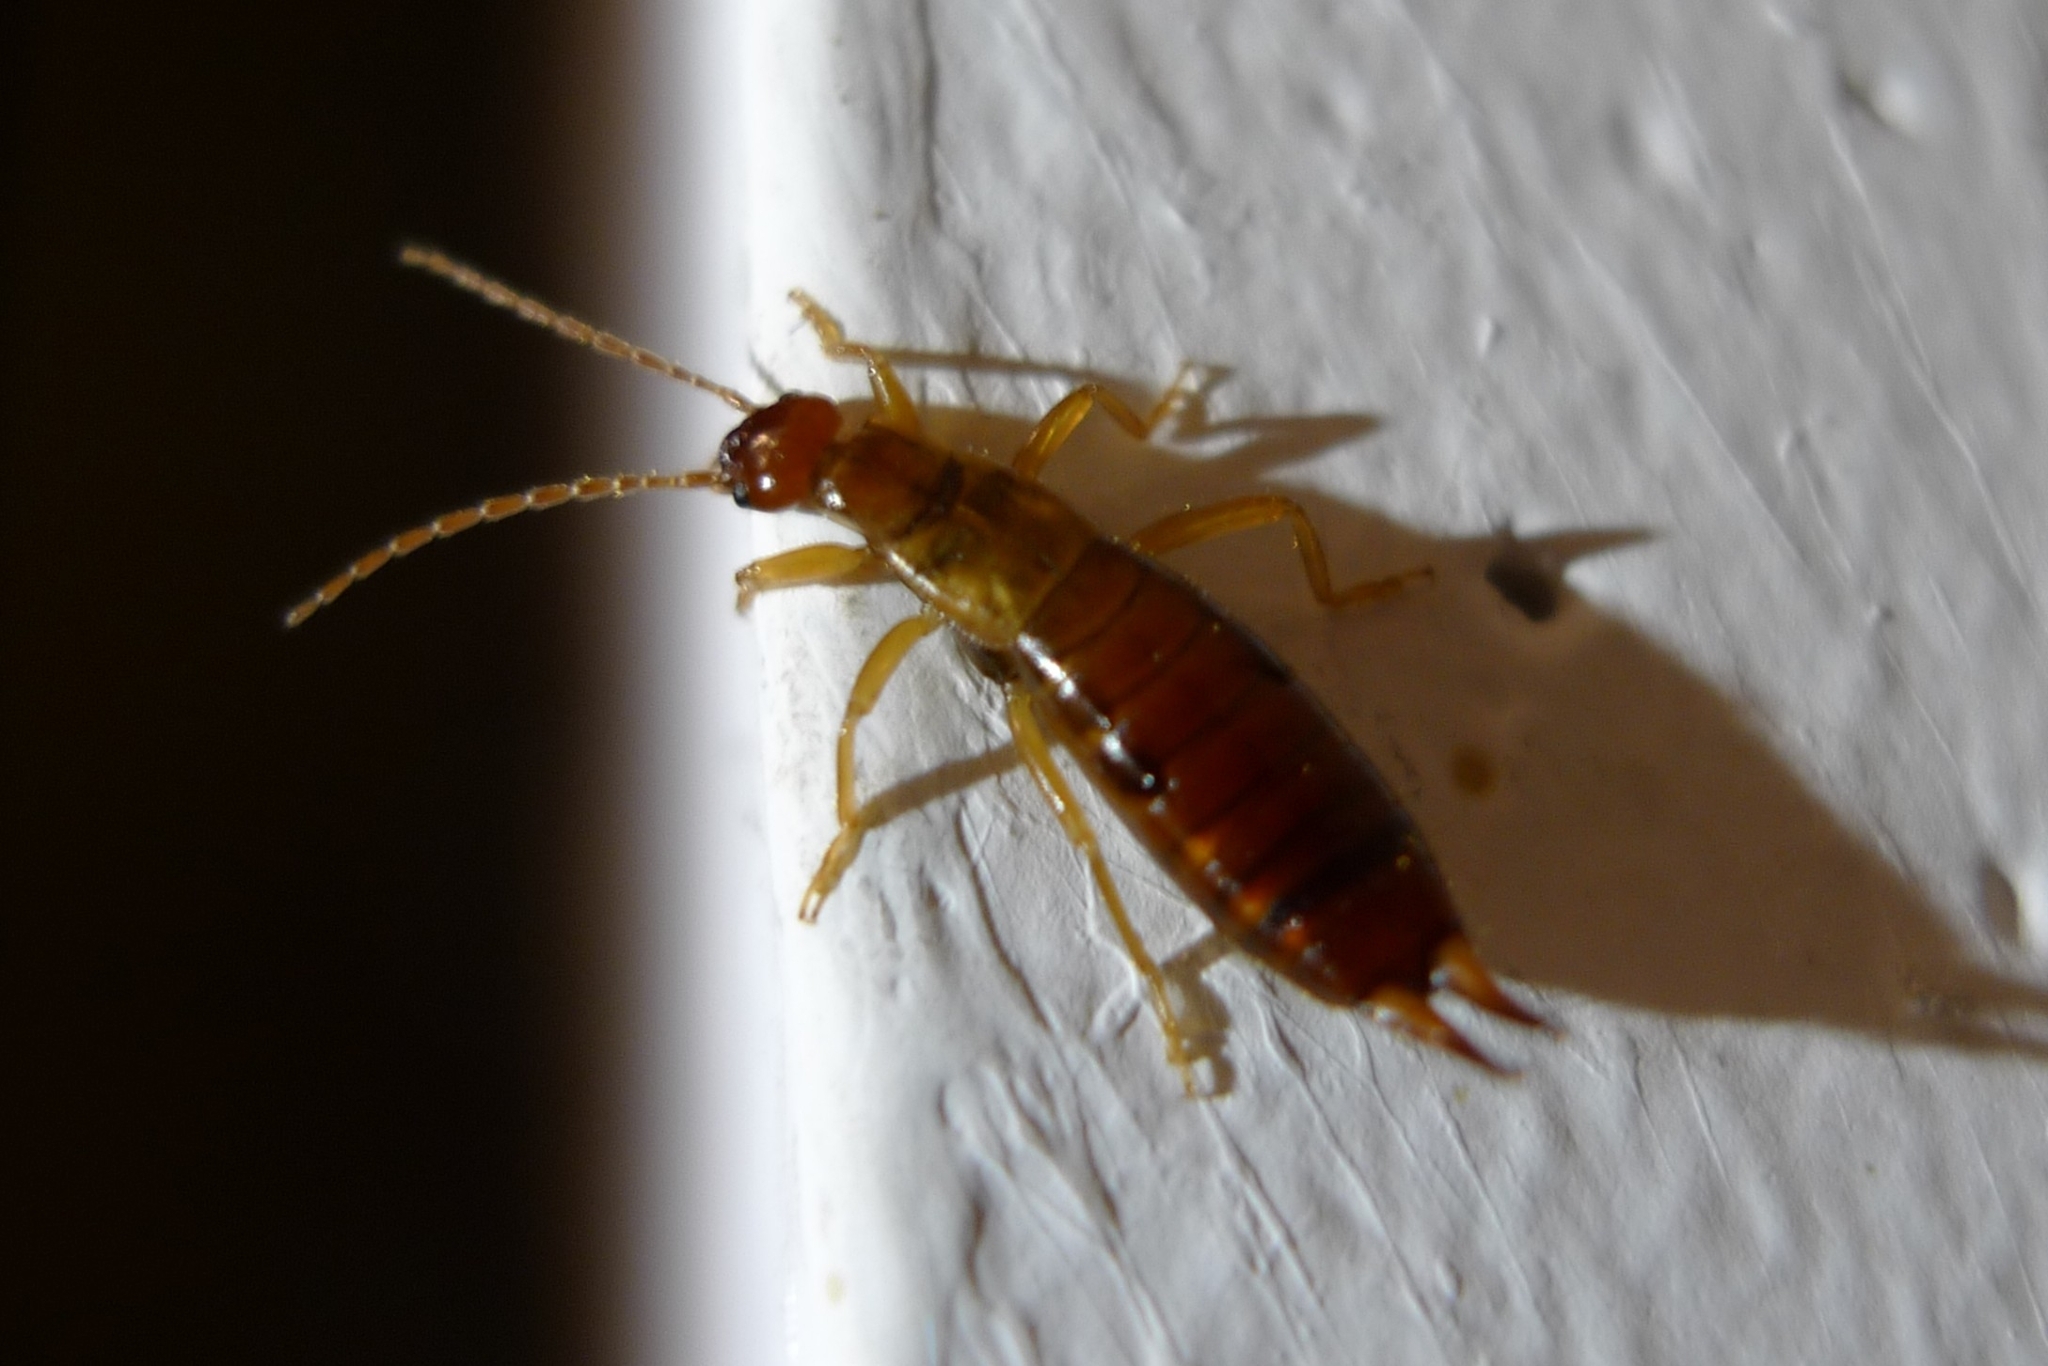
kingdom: Animalia
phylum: Arthropoda
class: Insecta
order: Dermaptera
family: Forficulidae
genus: Apterygida
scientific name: Apterygida albipennis
